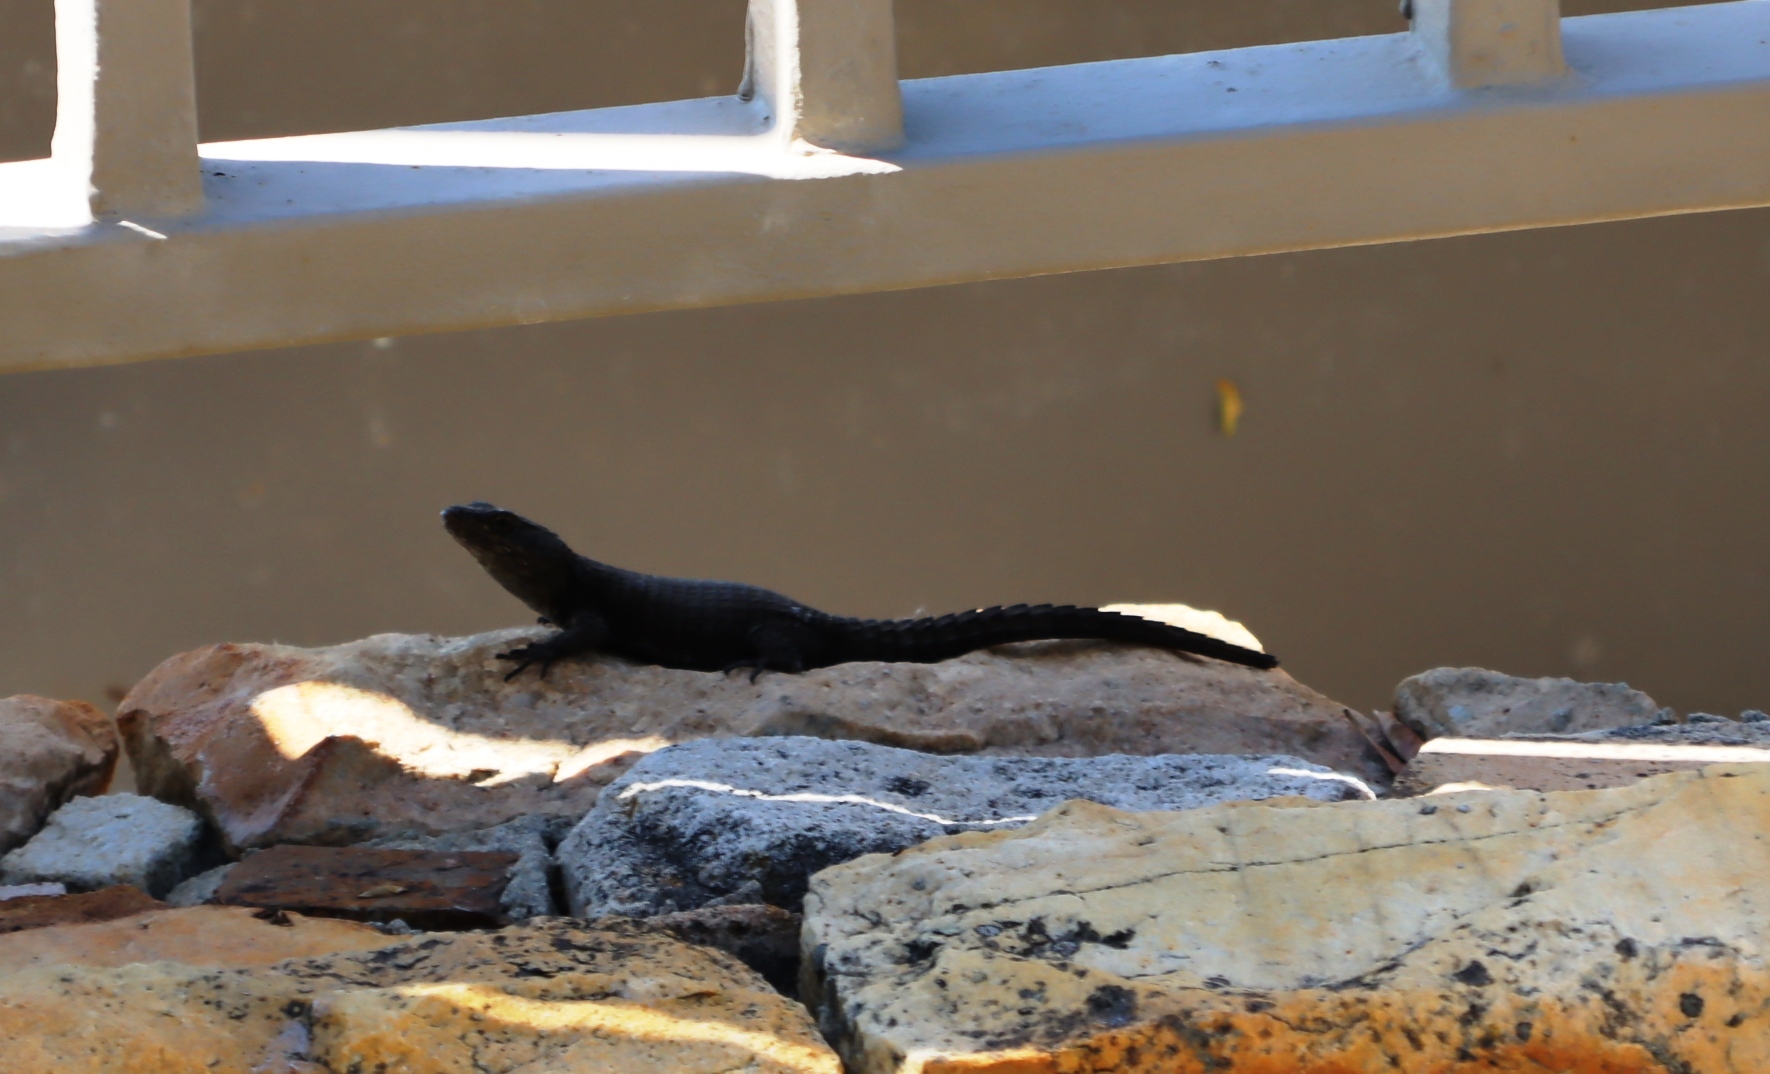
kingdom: Animalia
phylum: Chordata
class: Squamata
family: Cordylidae
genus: Cordylus
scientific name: Cordylus niger
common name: Black girdled lizard
